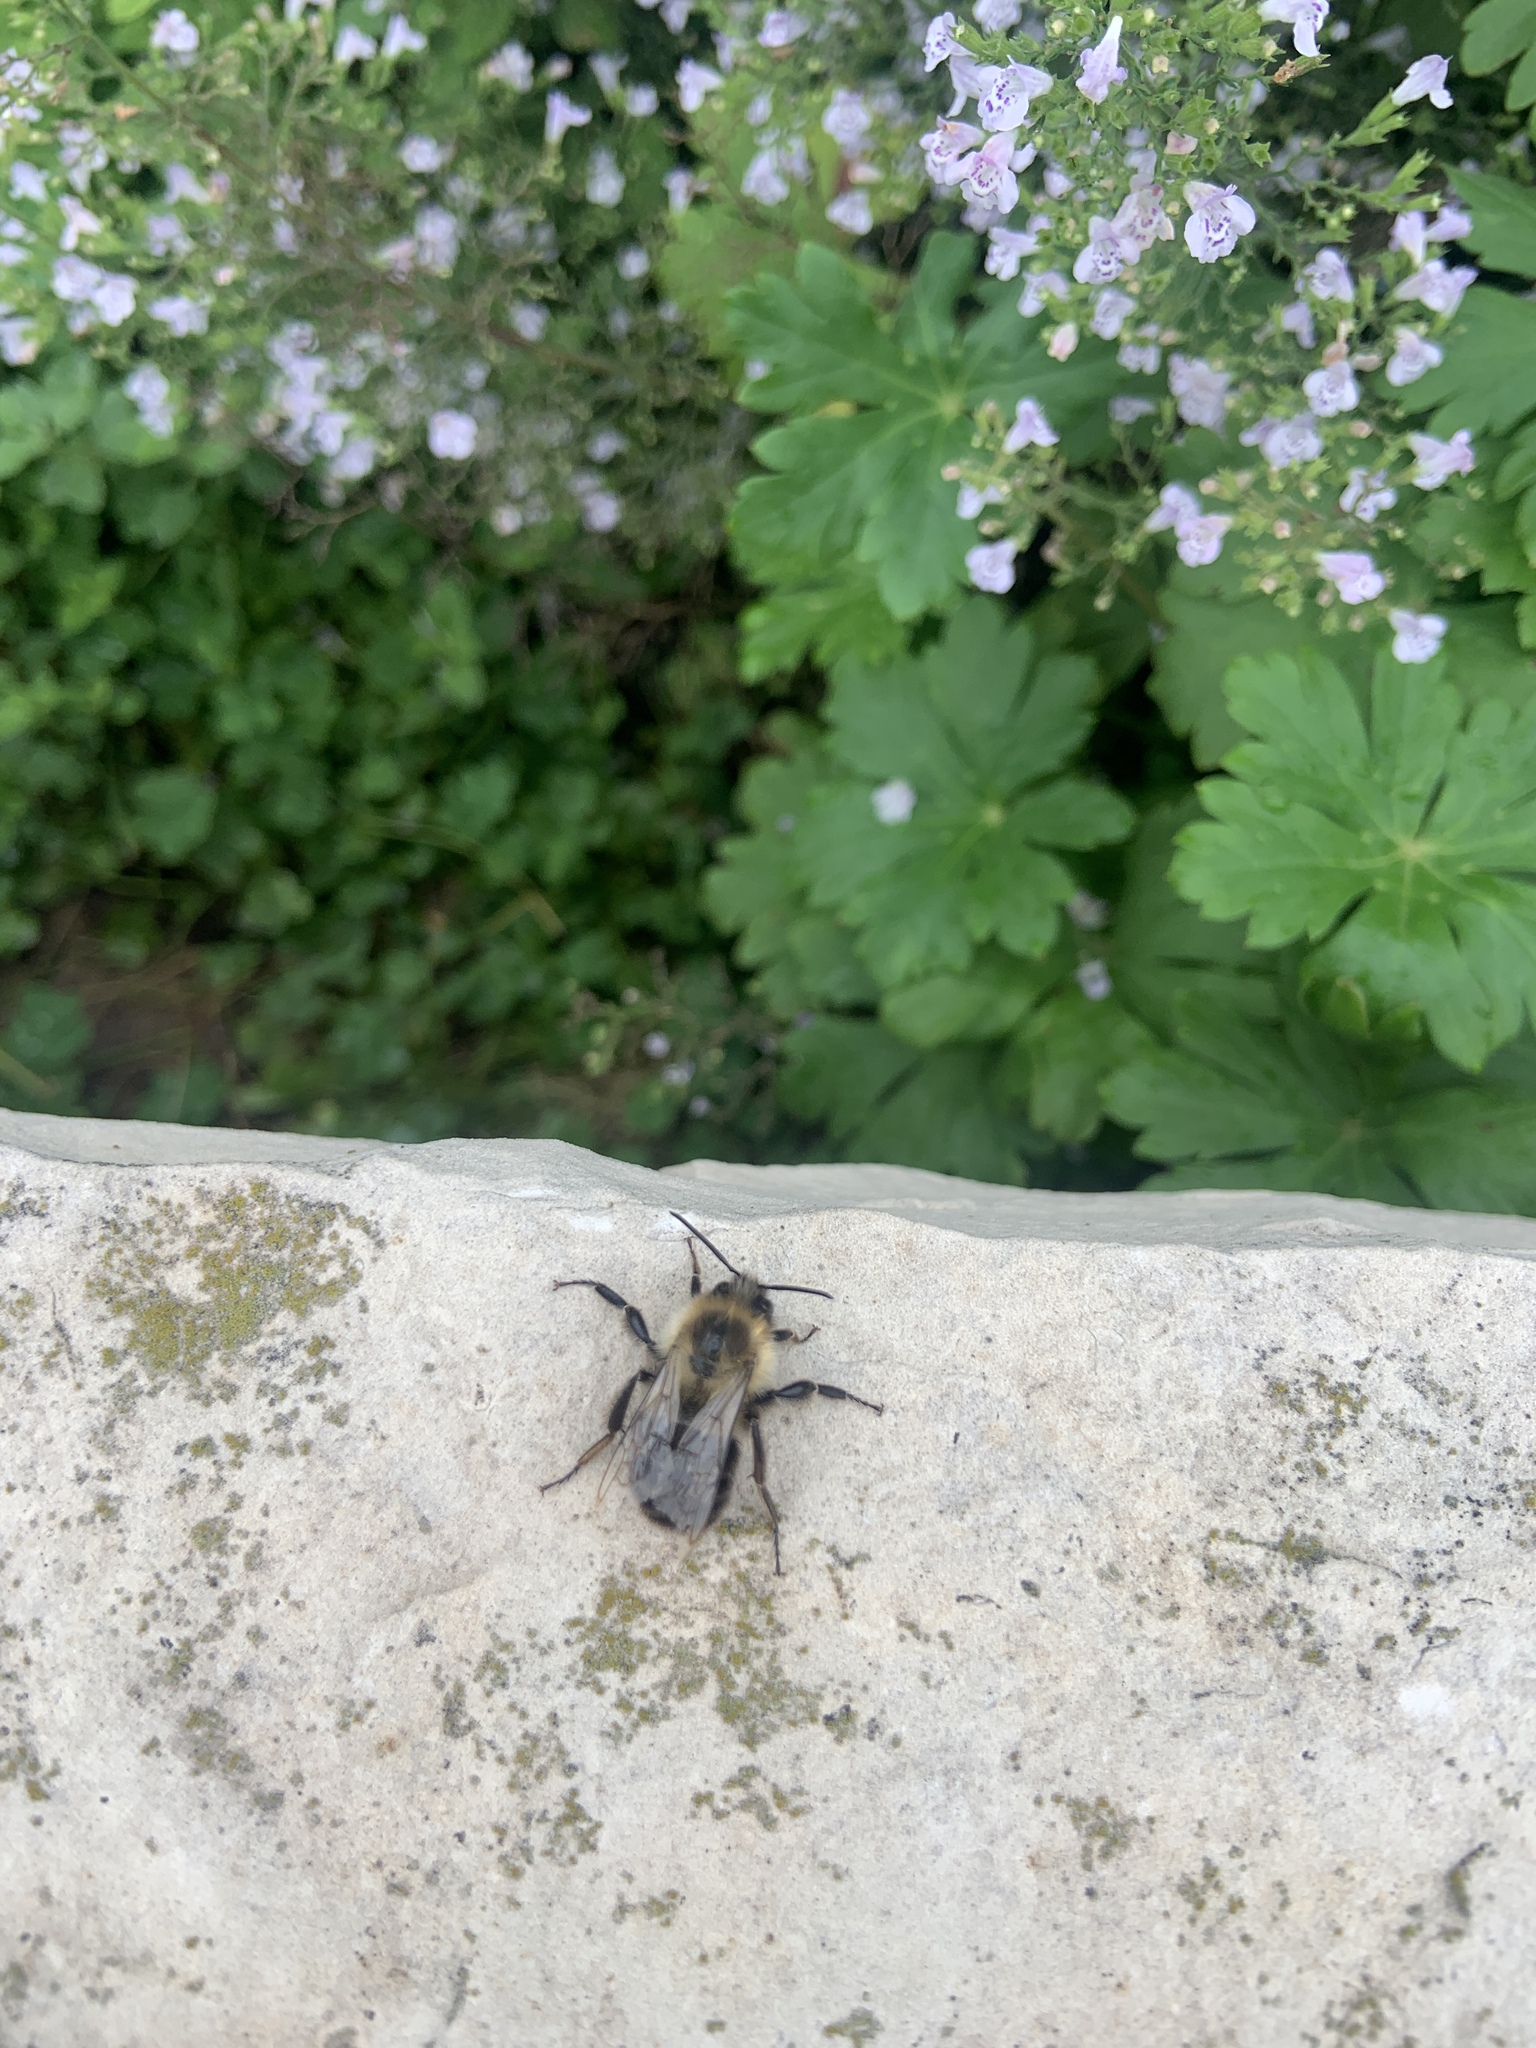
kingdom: Animalia
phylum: Arthropoda
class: Insecta
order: Hymenoptera
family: Apidae
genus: Bombus
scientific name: Bombus impatiens
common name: Common eastern bumble bee
